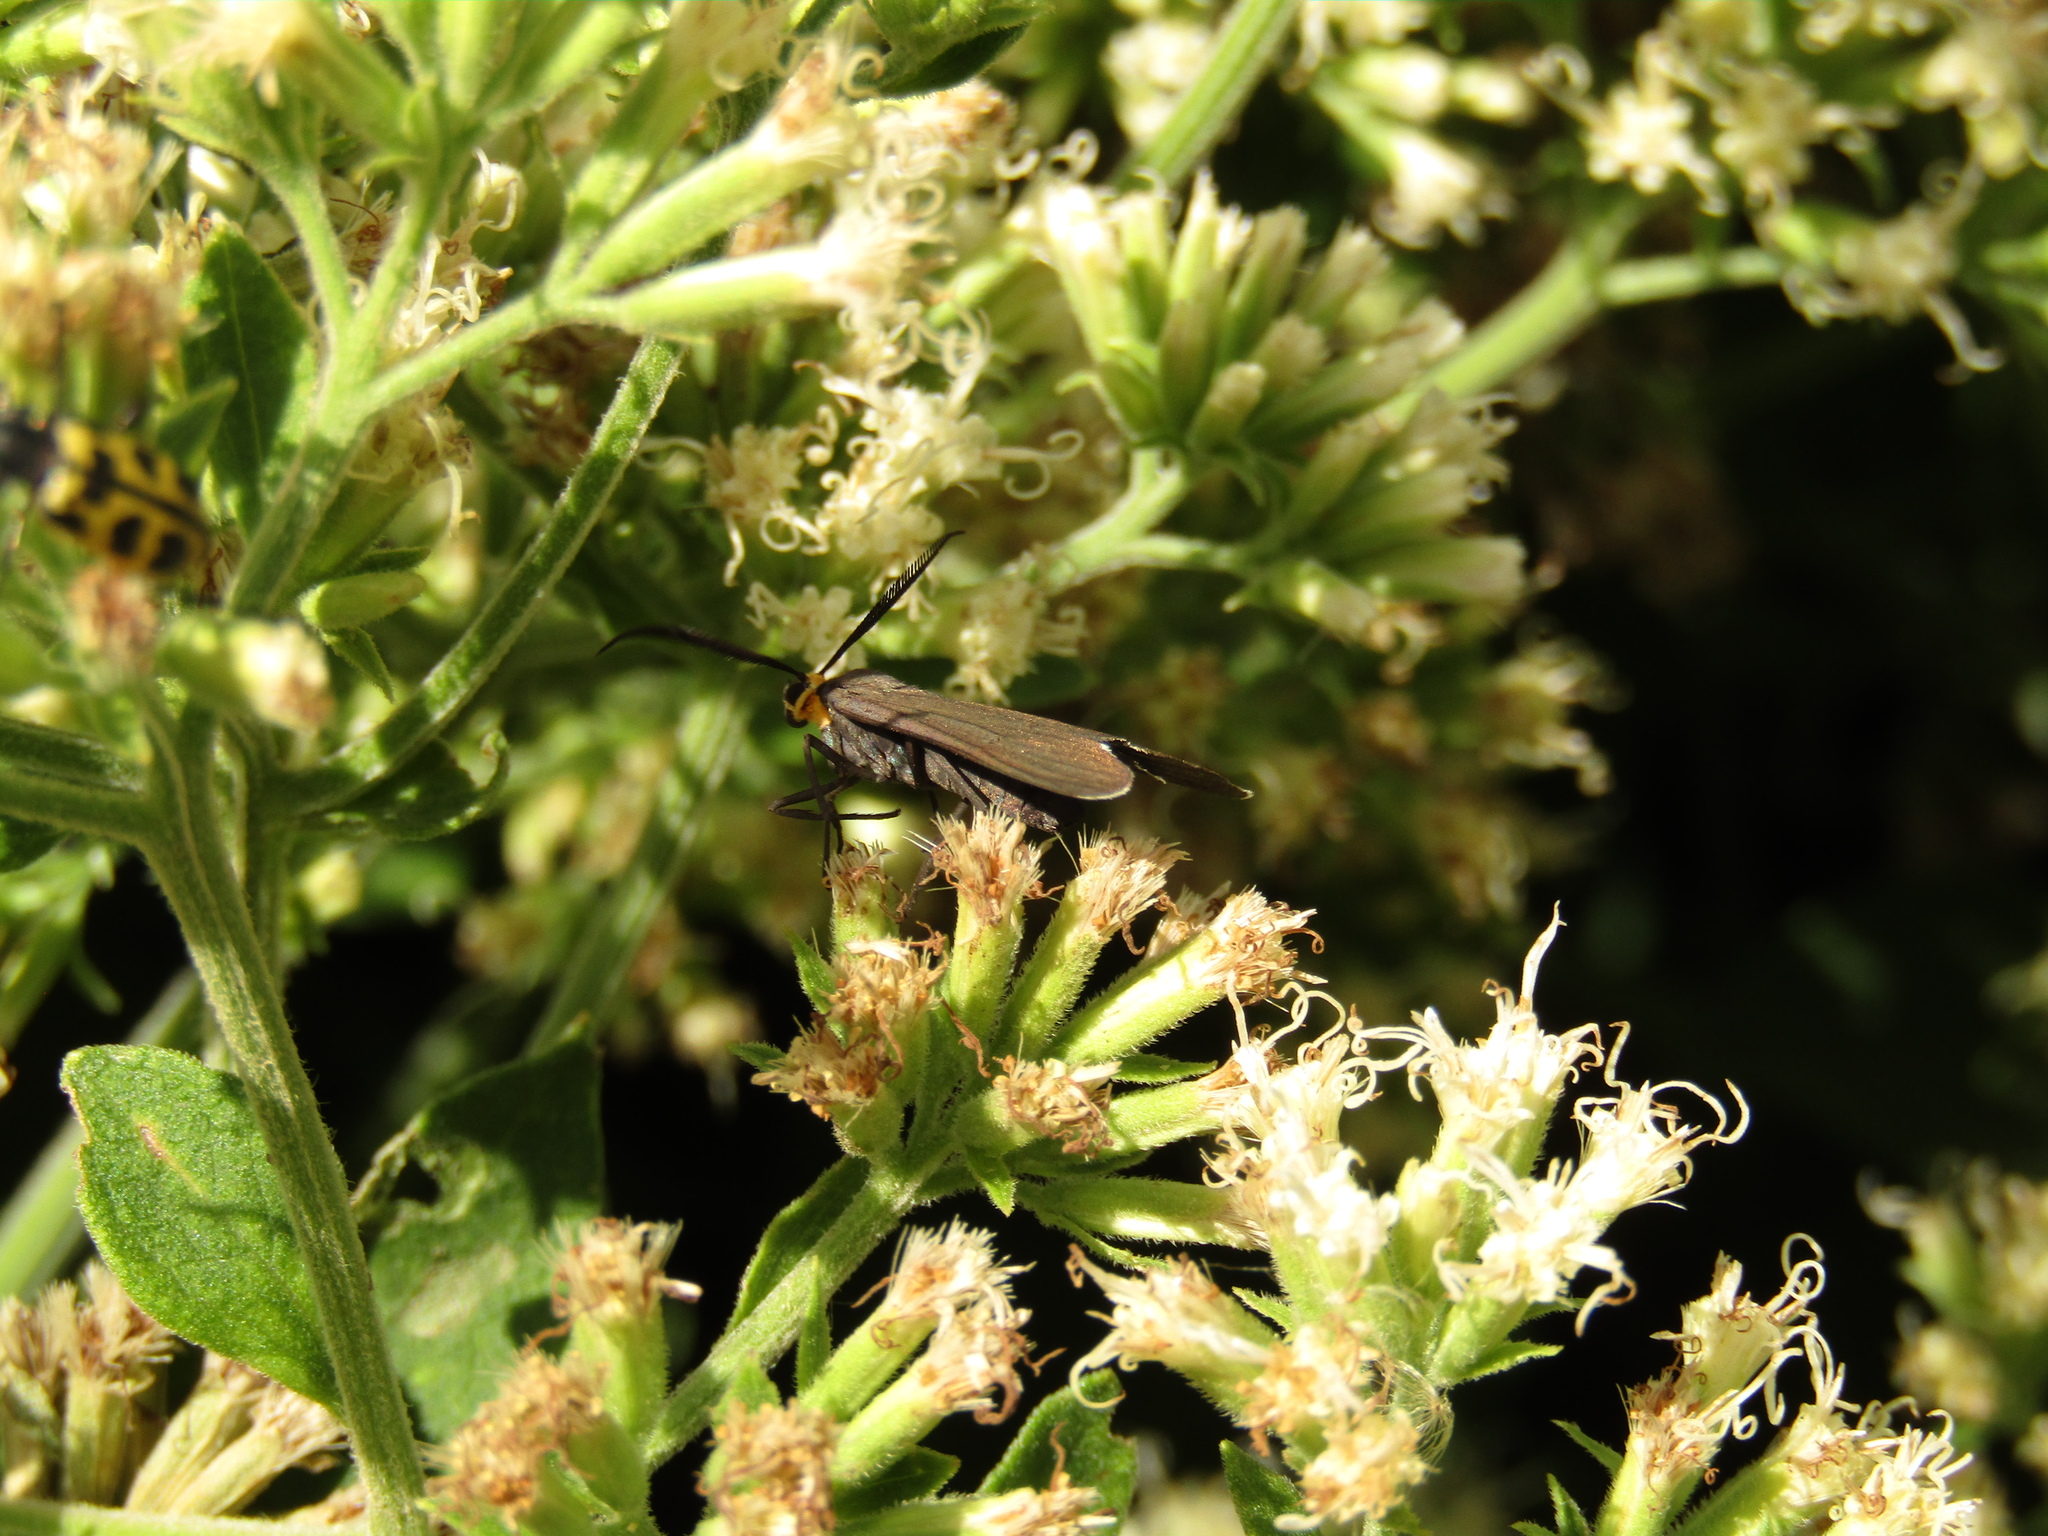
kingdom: Animalia
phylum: Arthropoda
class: Insecta
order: Lepidoptera
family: Erebidae
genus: Ctenucha
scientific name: Ctenucha rubriceps
